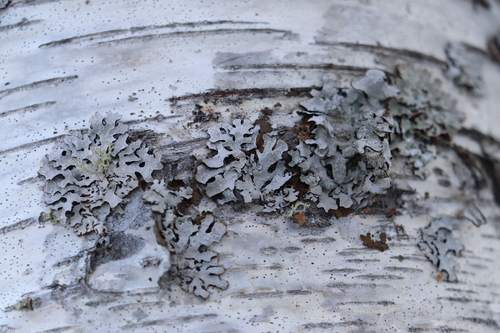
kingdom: Fungi
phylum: Ascomycota
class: Lecanoromycetes
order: Lecanorales
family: Parmeliaceae
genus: Parmelia
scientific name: Parmelia sulcata
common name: Netted shield lichen
